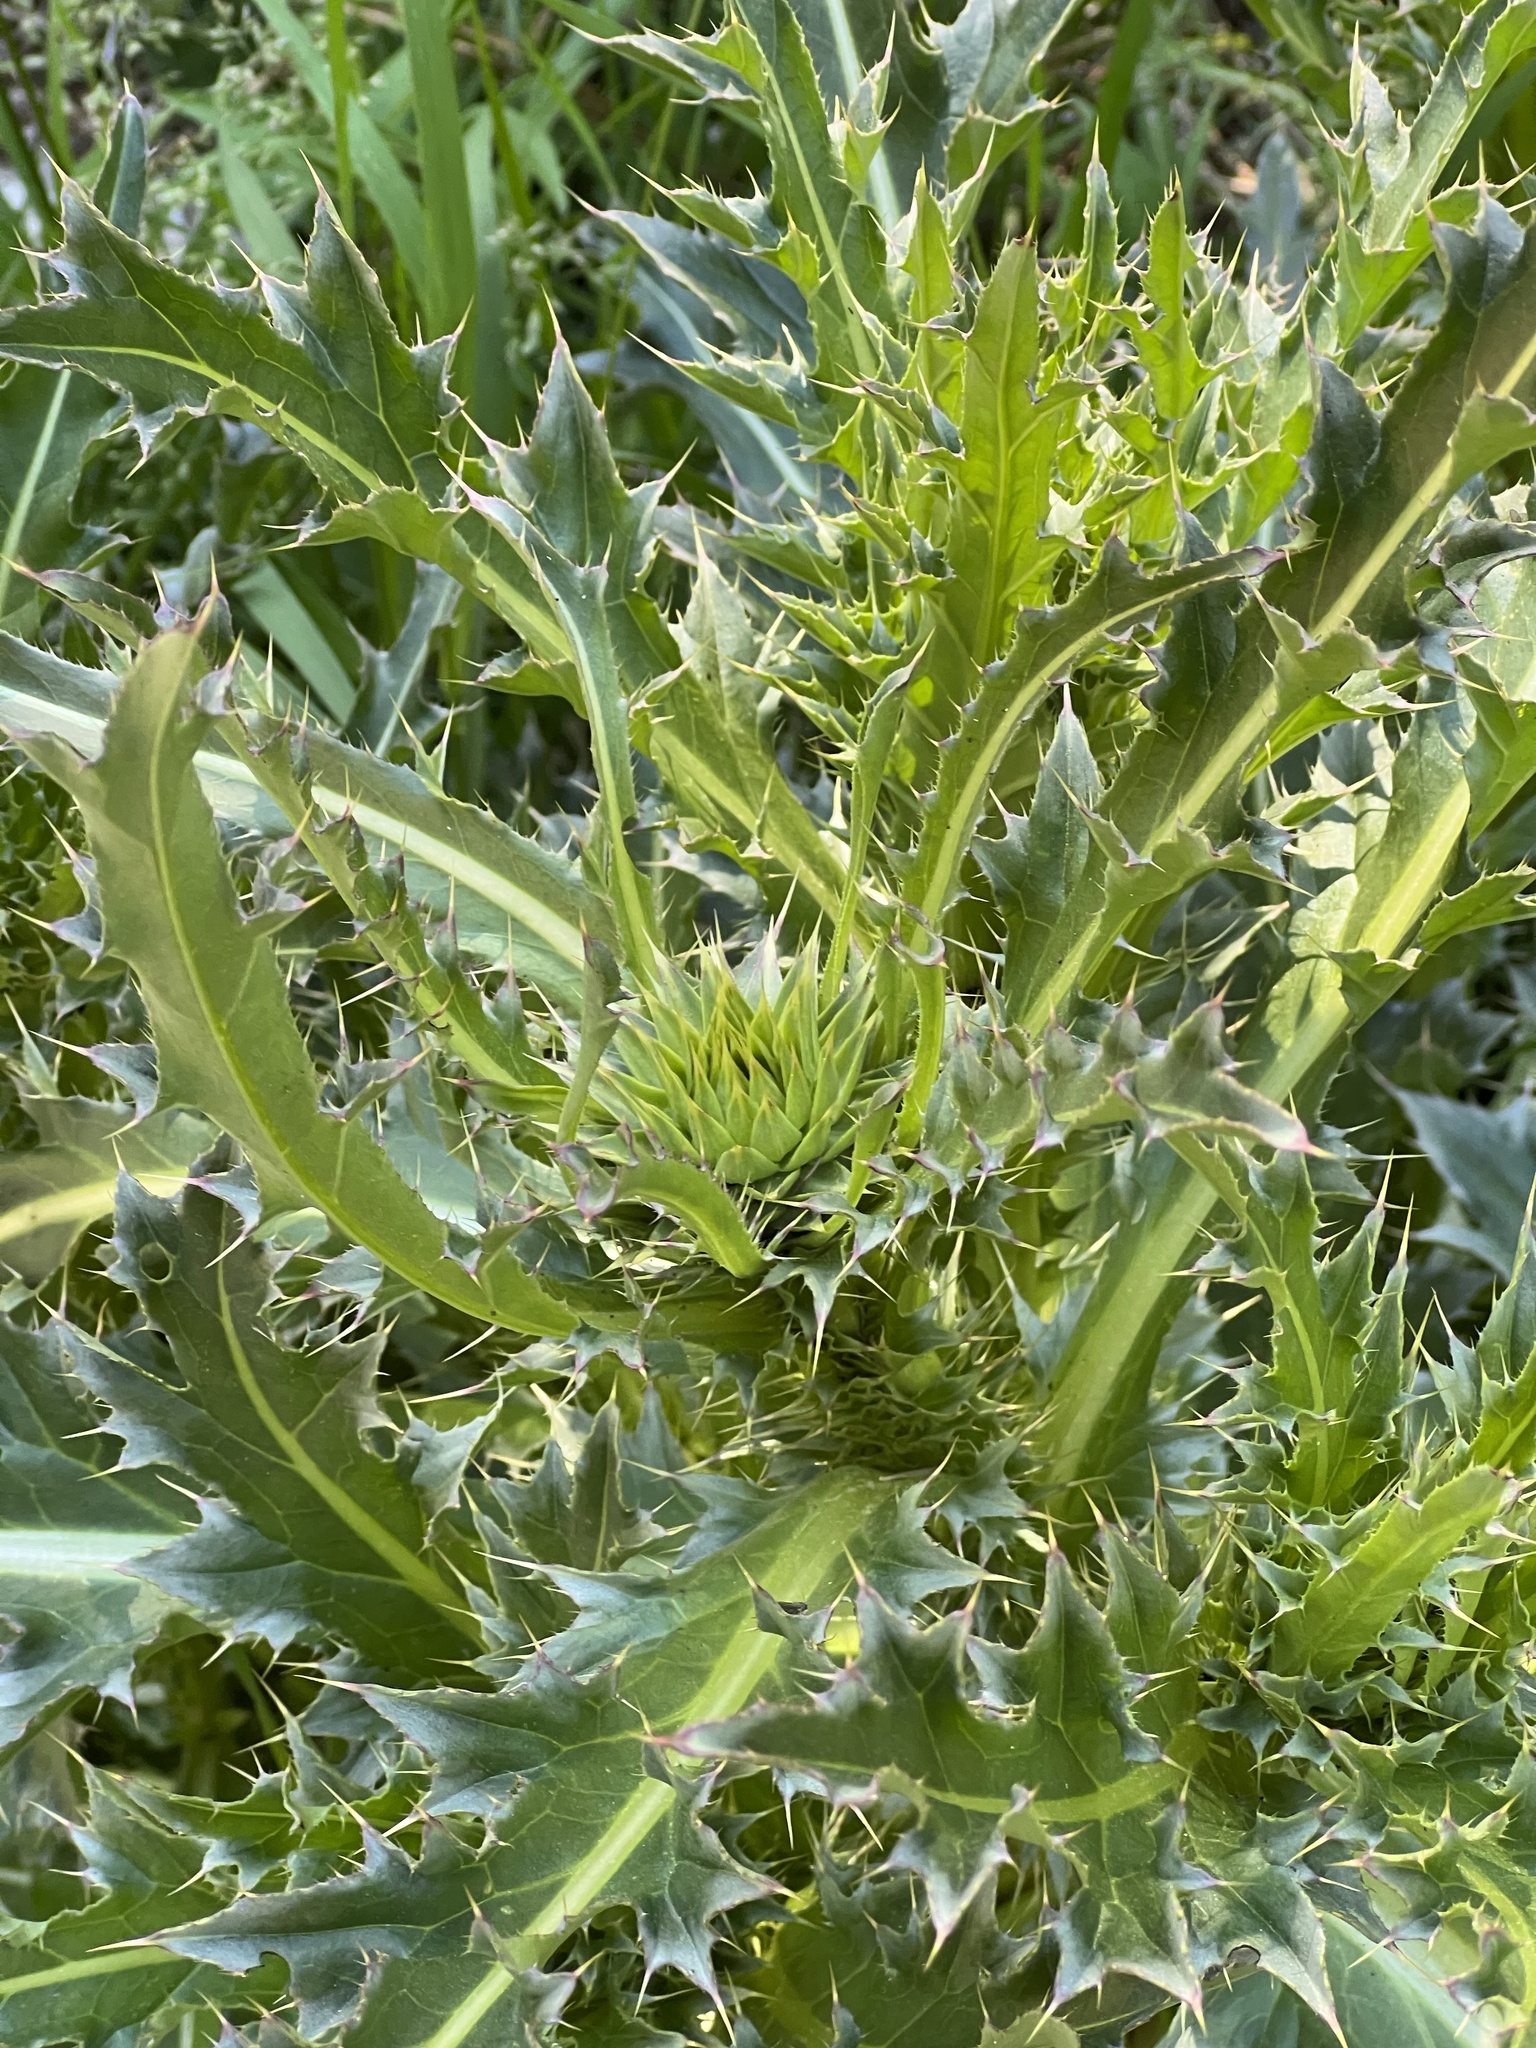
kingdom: Plantae
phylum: Tracheophyta
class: Magnoliopsida
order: Asterales
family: Asteraceae
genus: Carduus
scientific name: Carduus nutans
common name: Musk thistle
